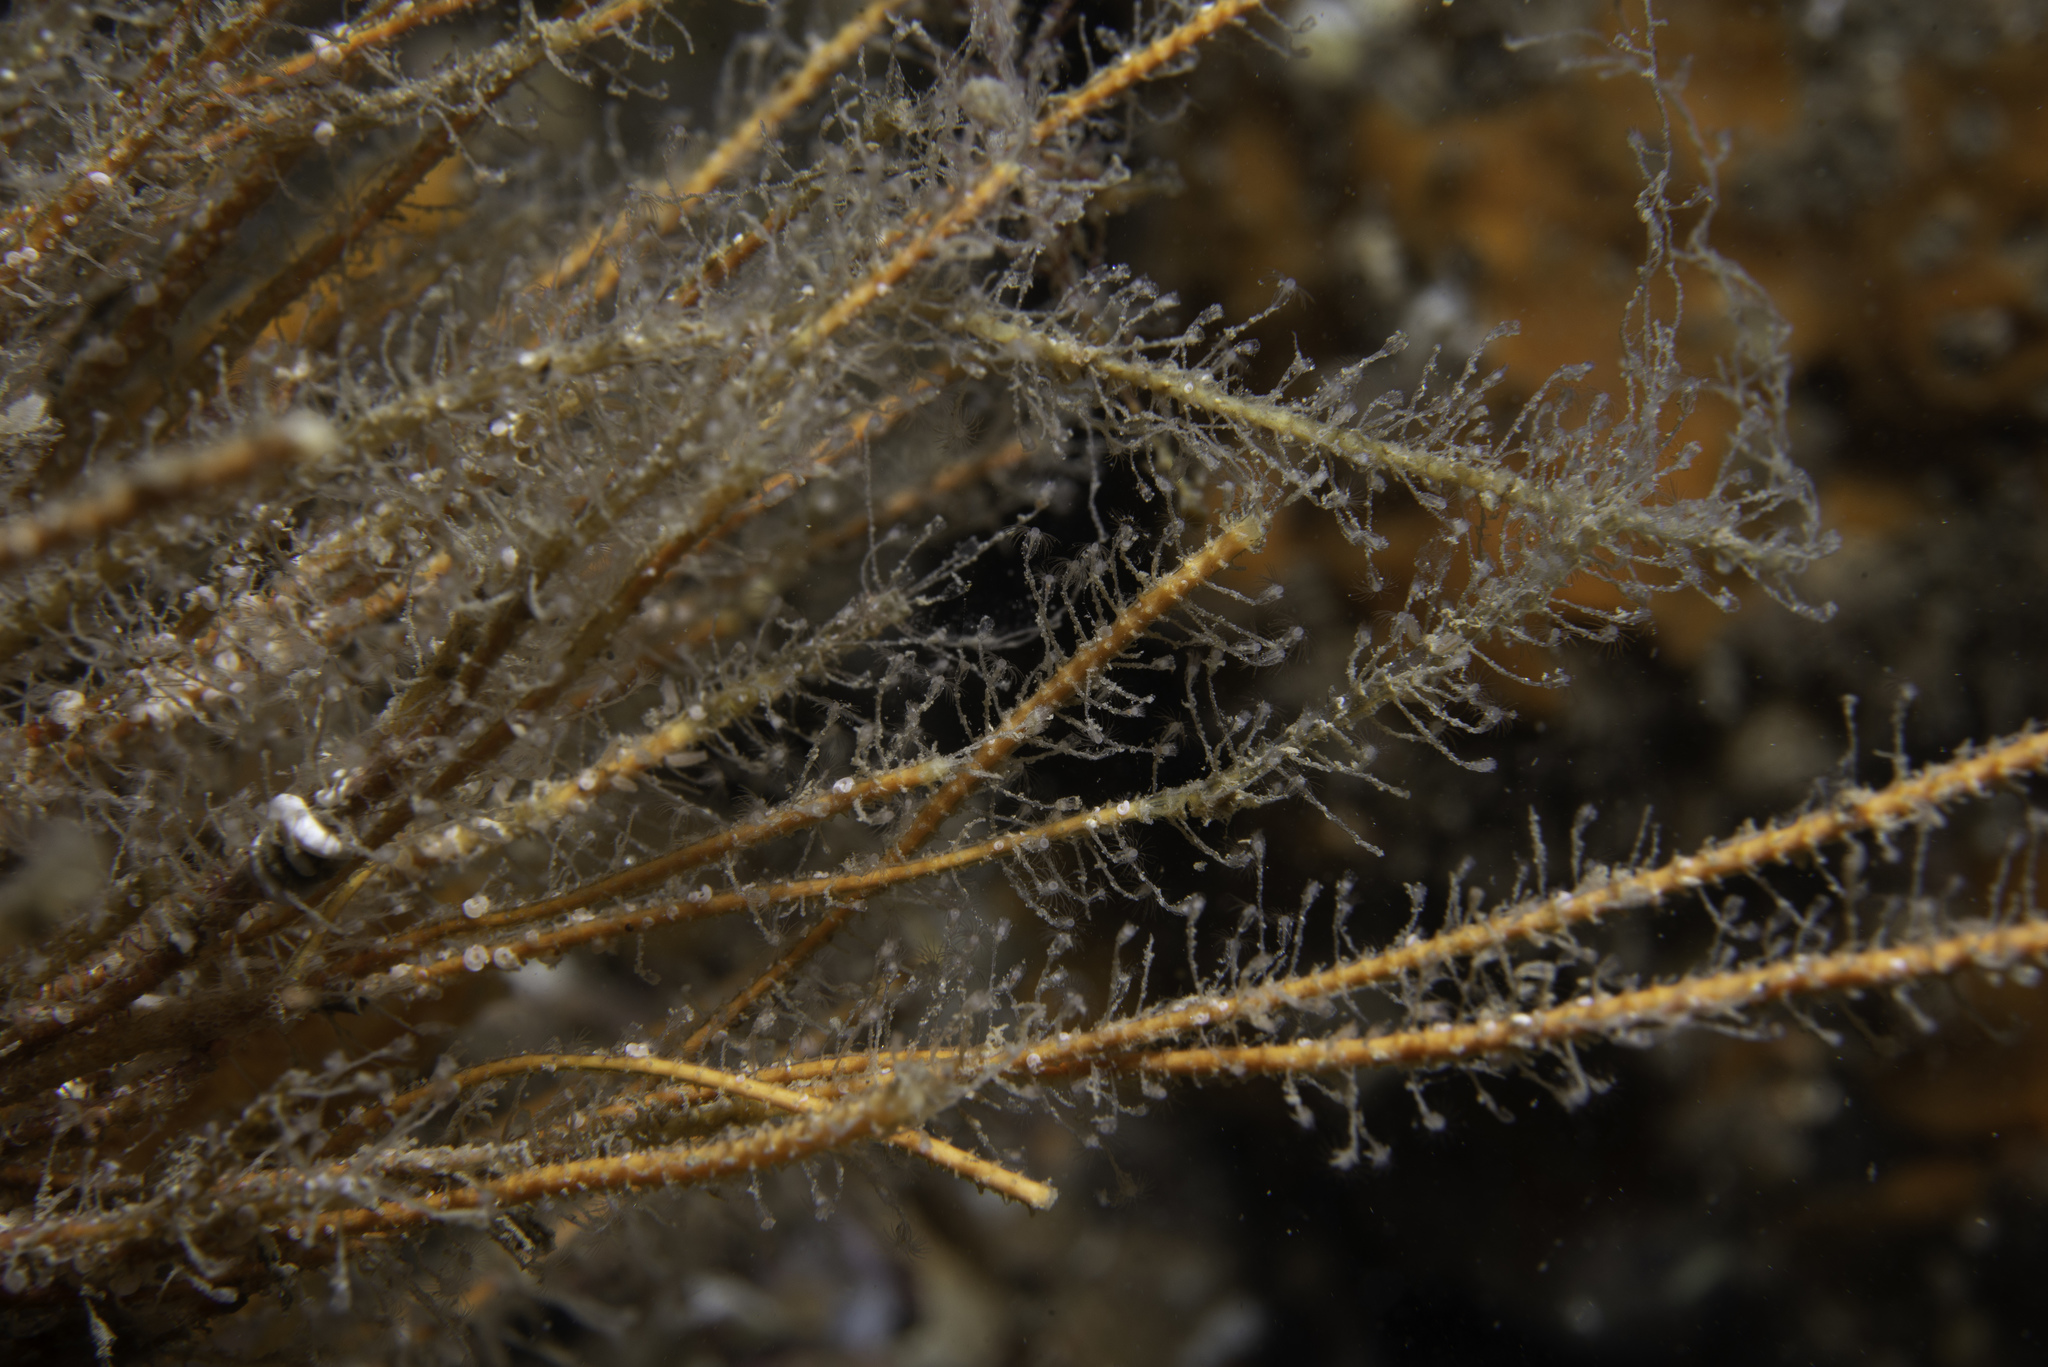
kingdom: Animalia
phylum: Cnidaria
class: Hydrozoa
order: Leptothecata
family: Campanulariidae
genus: Clytia
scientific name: Clytia hemisphaerica
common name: Hydroid
